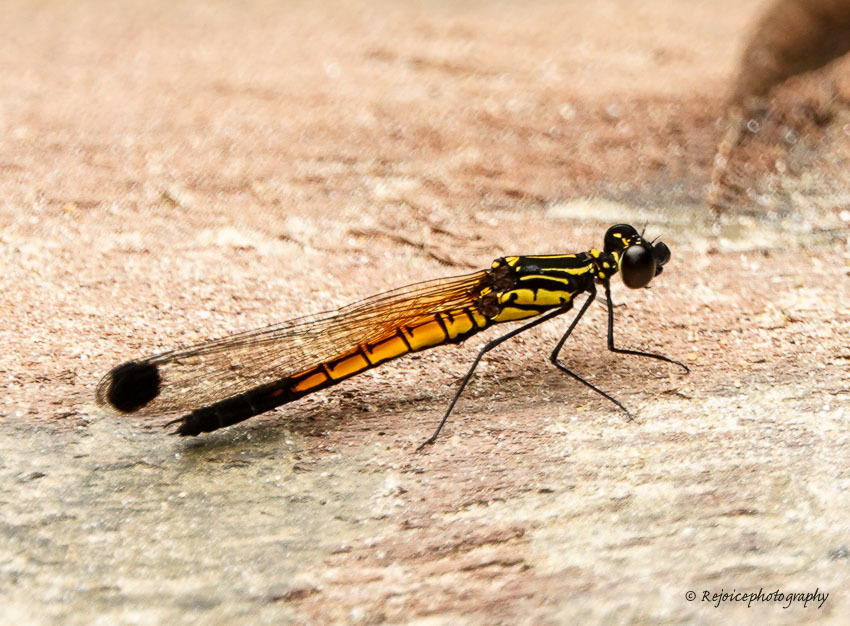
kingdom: Animalia
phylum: Arthropoda
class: Insecta
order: Odonata
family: Chlorocyphidae
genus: Libellago
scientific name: Libellago lineata
